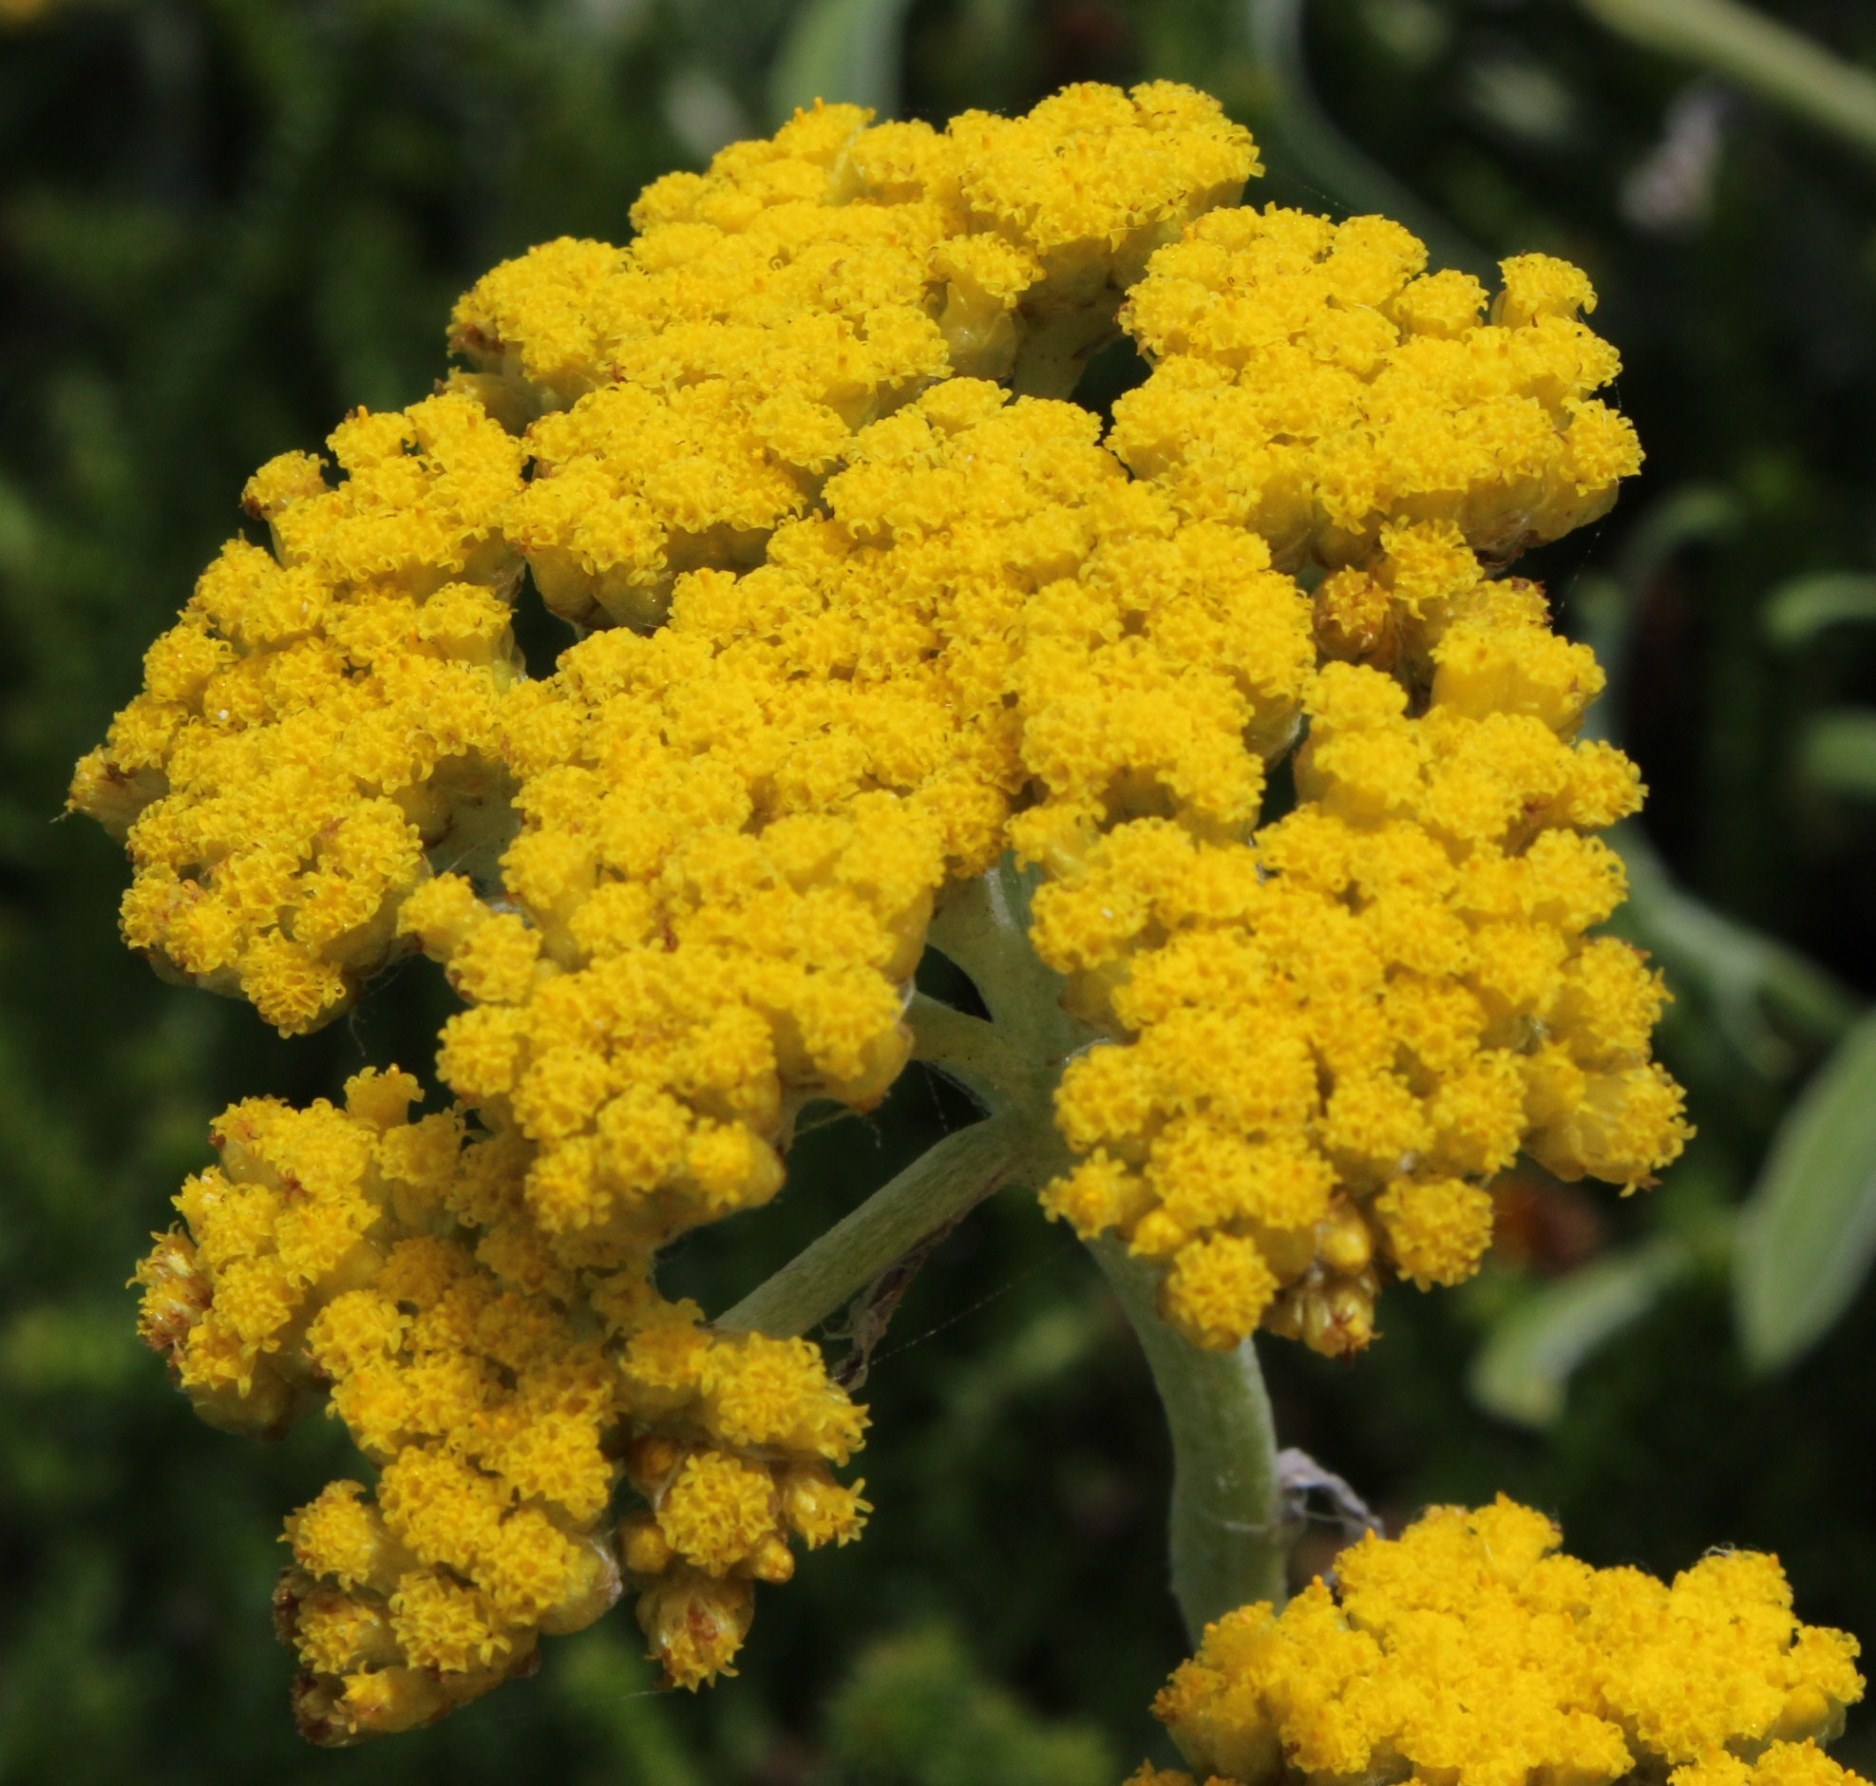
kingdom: Plantae
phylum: Tracheophyta
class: Magnoliopsida
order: Asterales
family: Asteraceae
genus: Helichrysum
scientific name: Helichrysum odoratissimum
